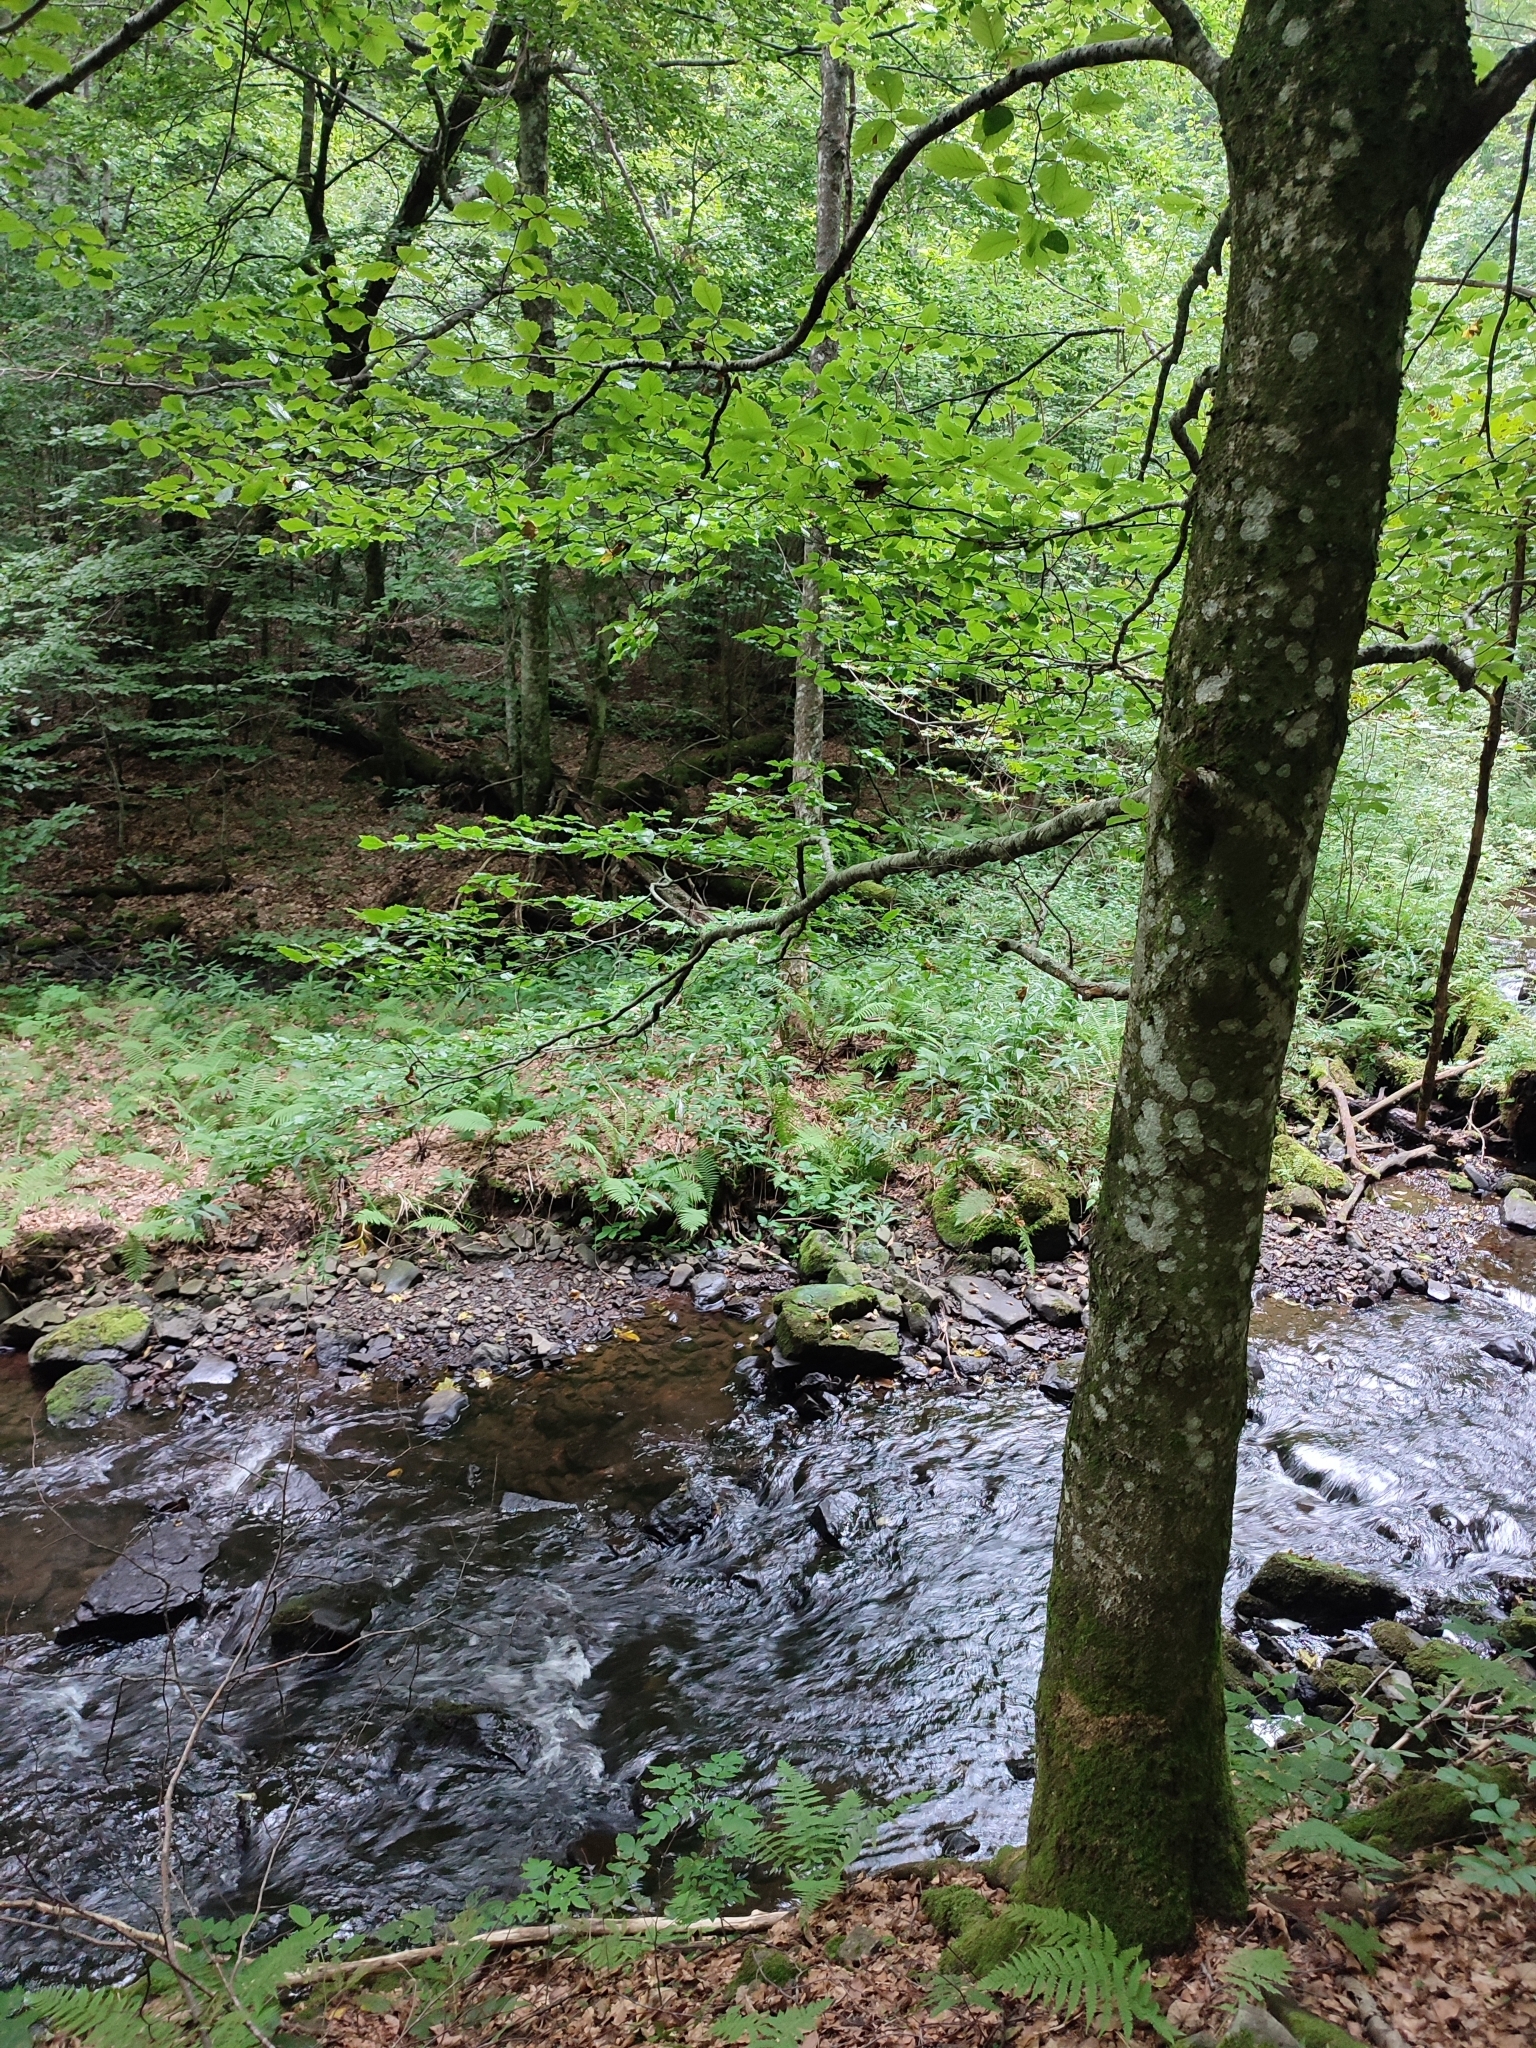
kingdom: Plantae
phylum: Tracheophyta
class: Magnoliopsida
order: Fagales
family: Fagaceae
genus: Fagus
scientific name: Fagus sylvatica
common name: Beech
